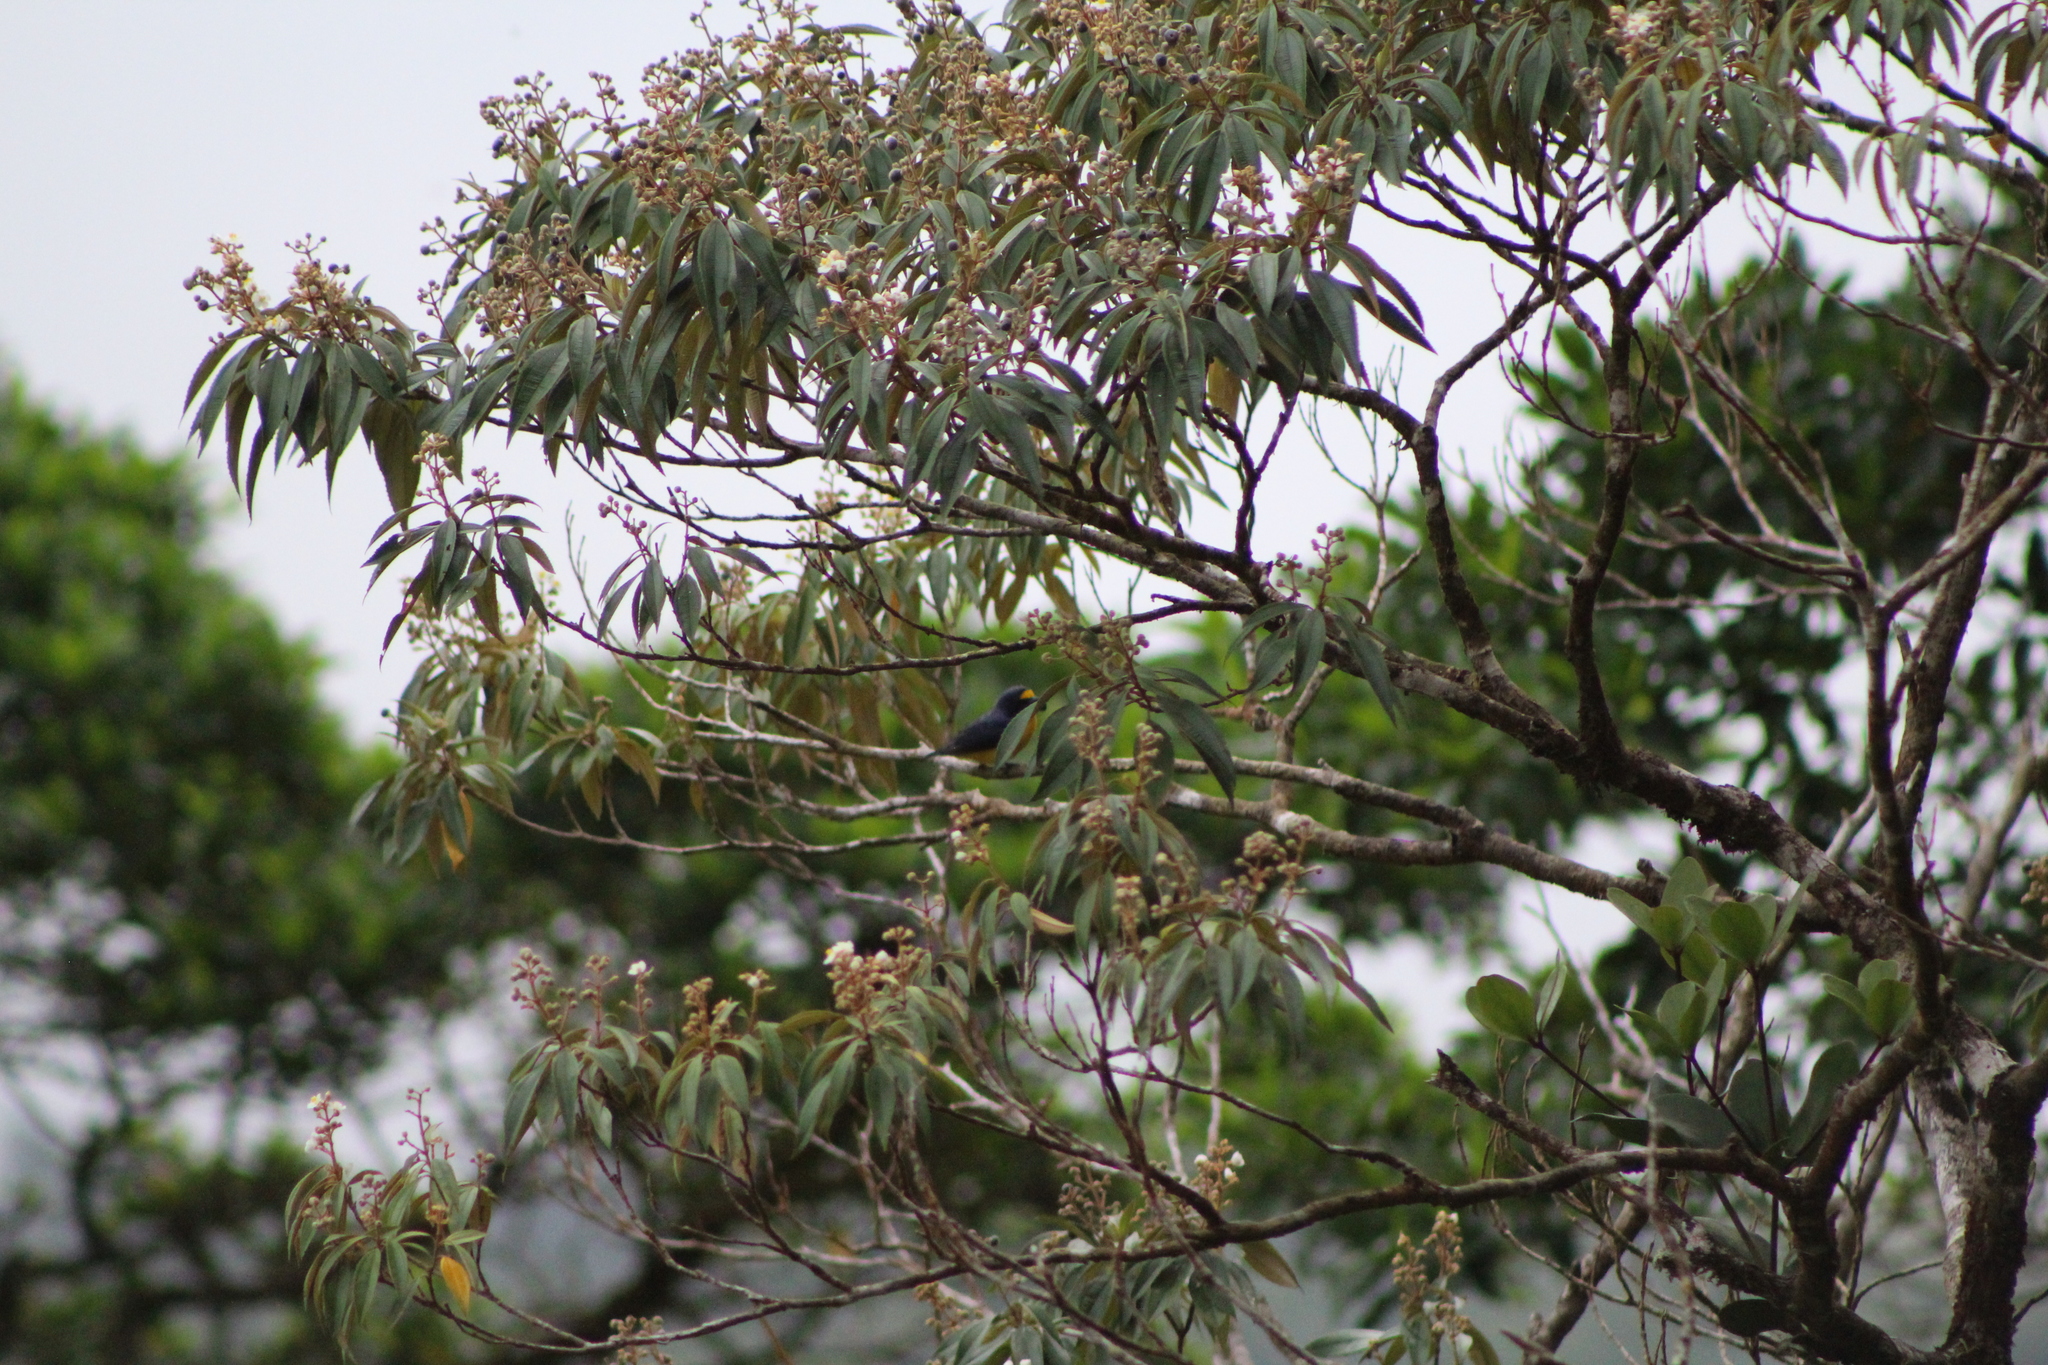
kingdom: Animalia
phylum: Chordata
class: Aves
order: Passeriformes
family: Fringillidae
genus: Euphonia
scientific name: Euphonia hirundinacea
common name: Yellow-throated euphonia
